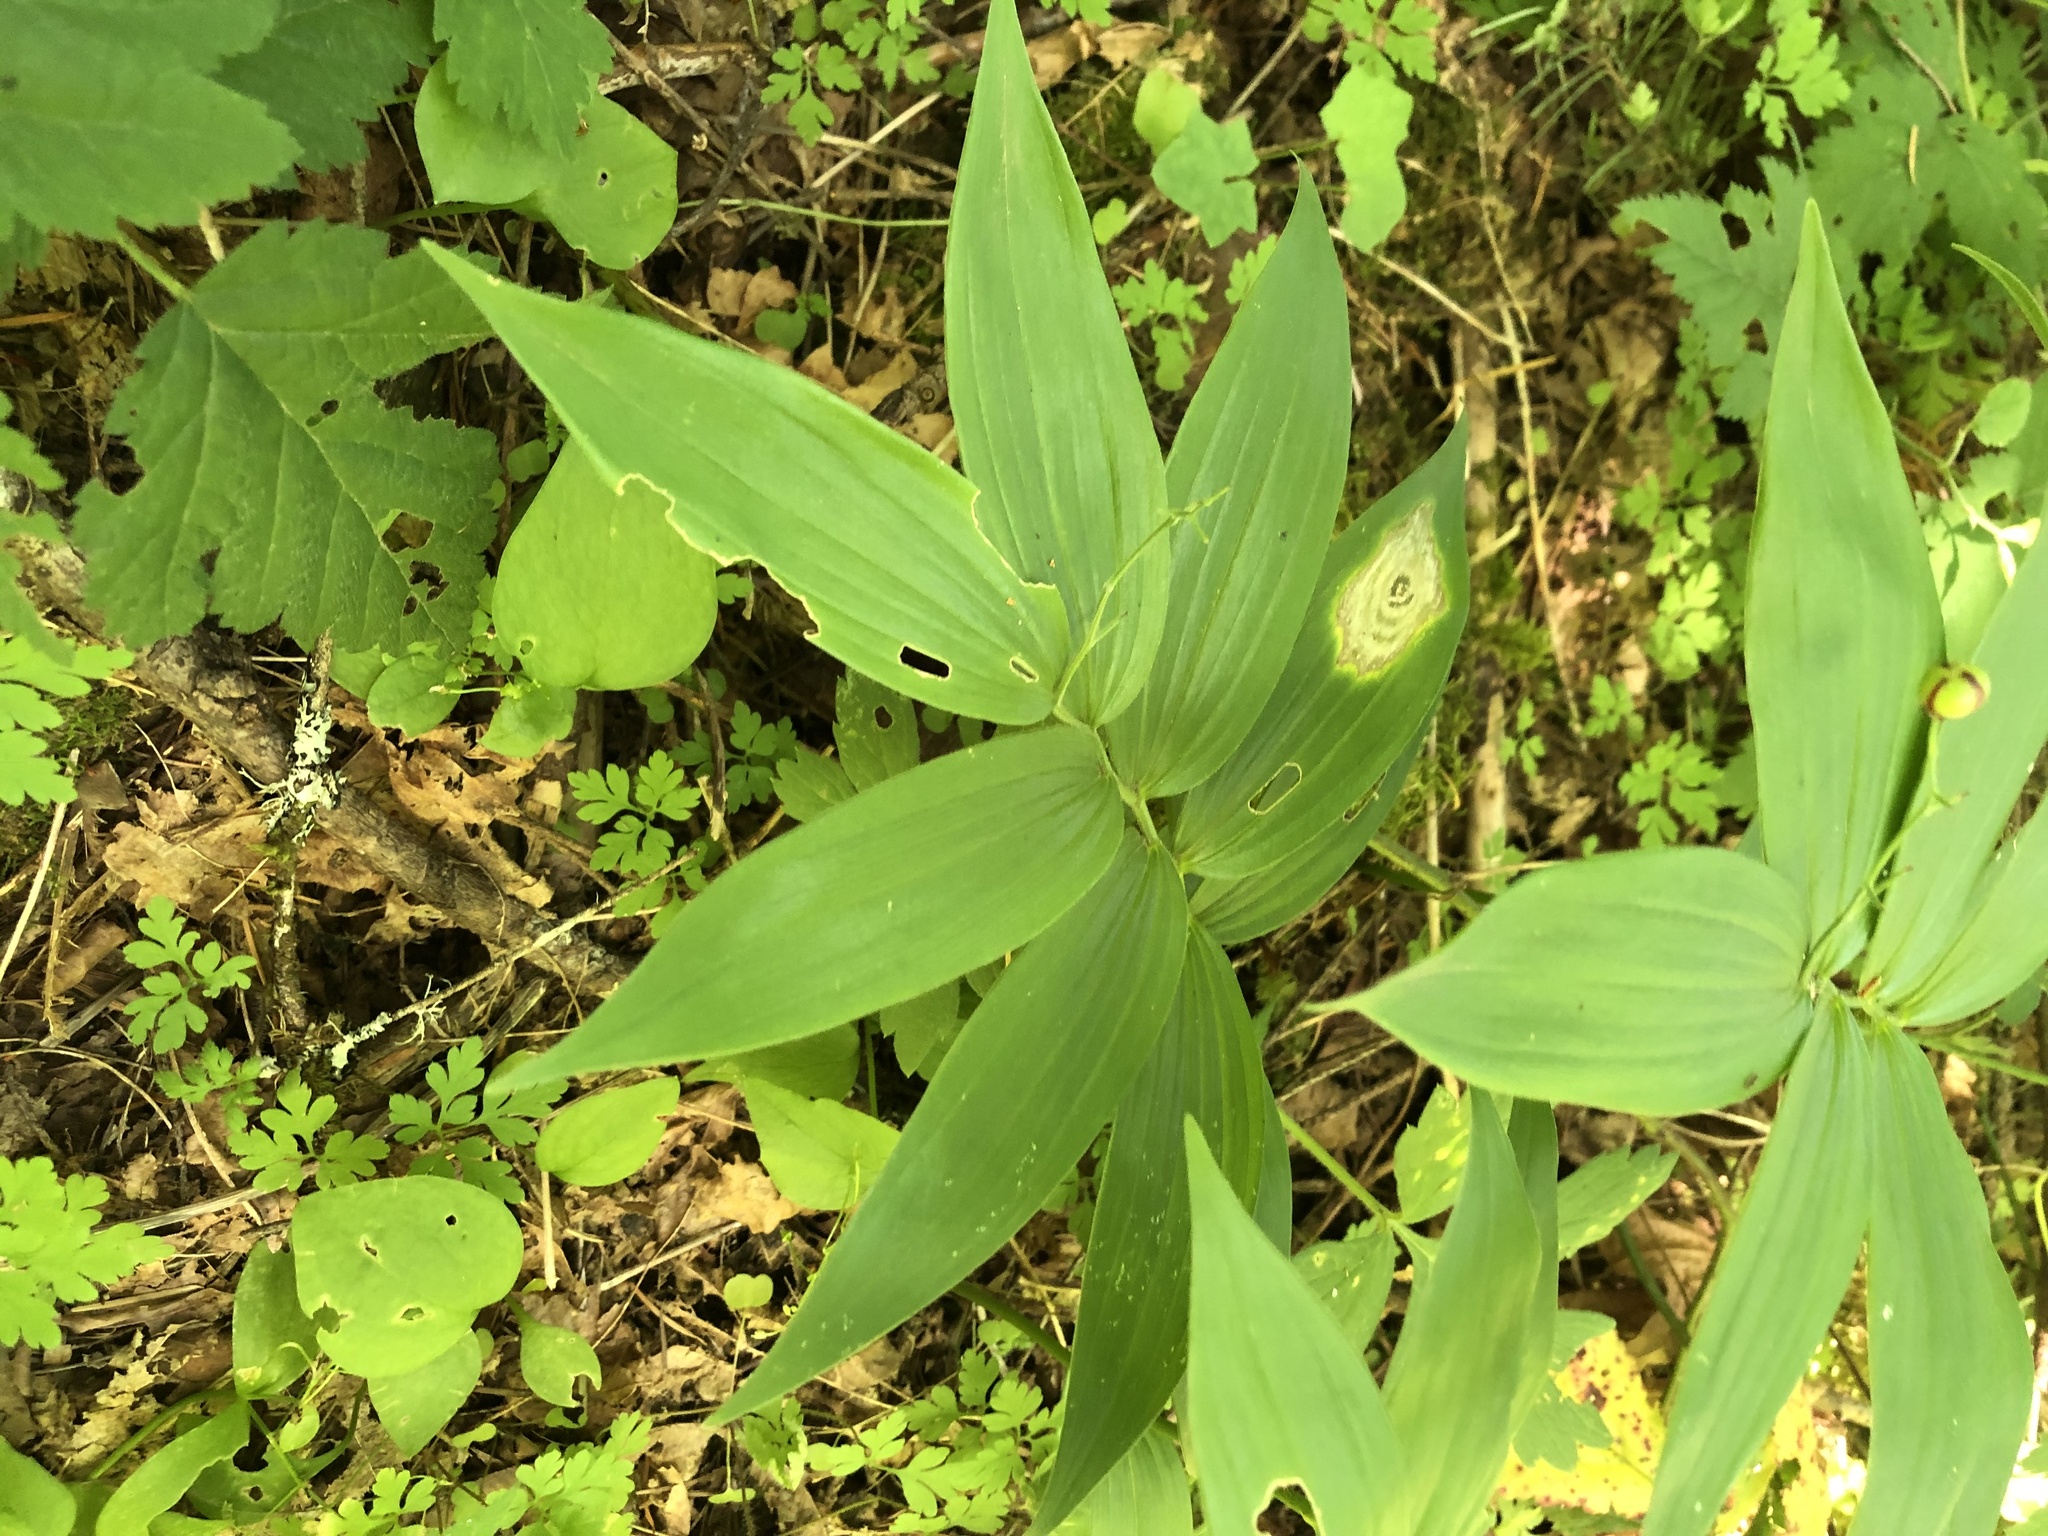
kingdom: Plantae
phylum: Tracheophyta
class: Liliopsida
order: Asparagales
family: Asparagaceae
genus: Maianthemum
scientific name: Maianthemum stellatum
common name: Little false solomon's seal
